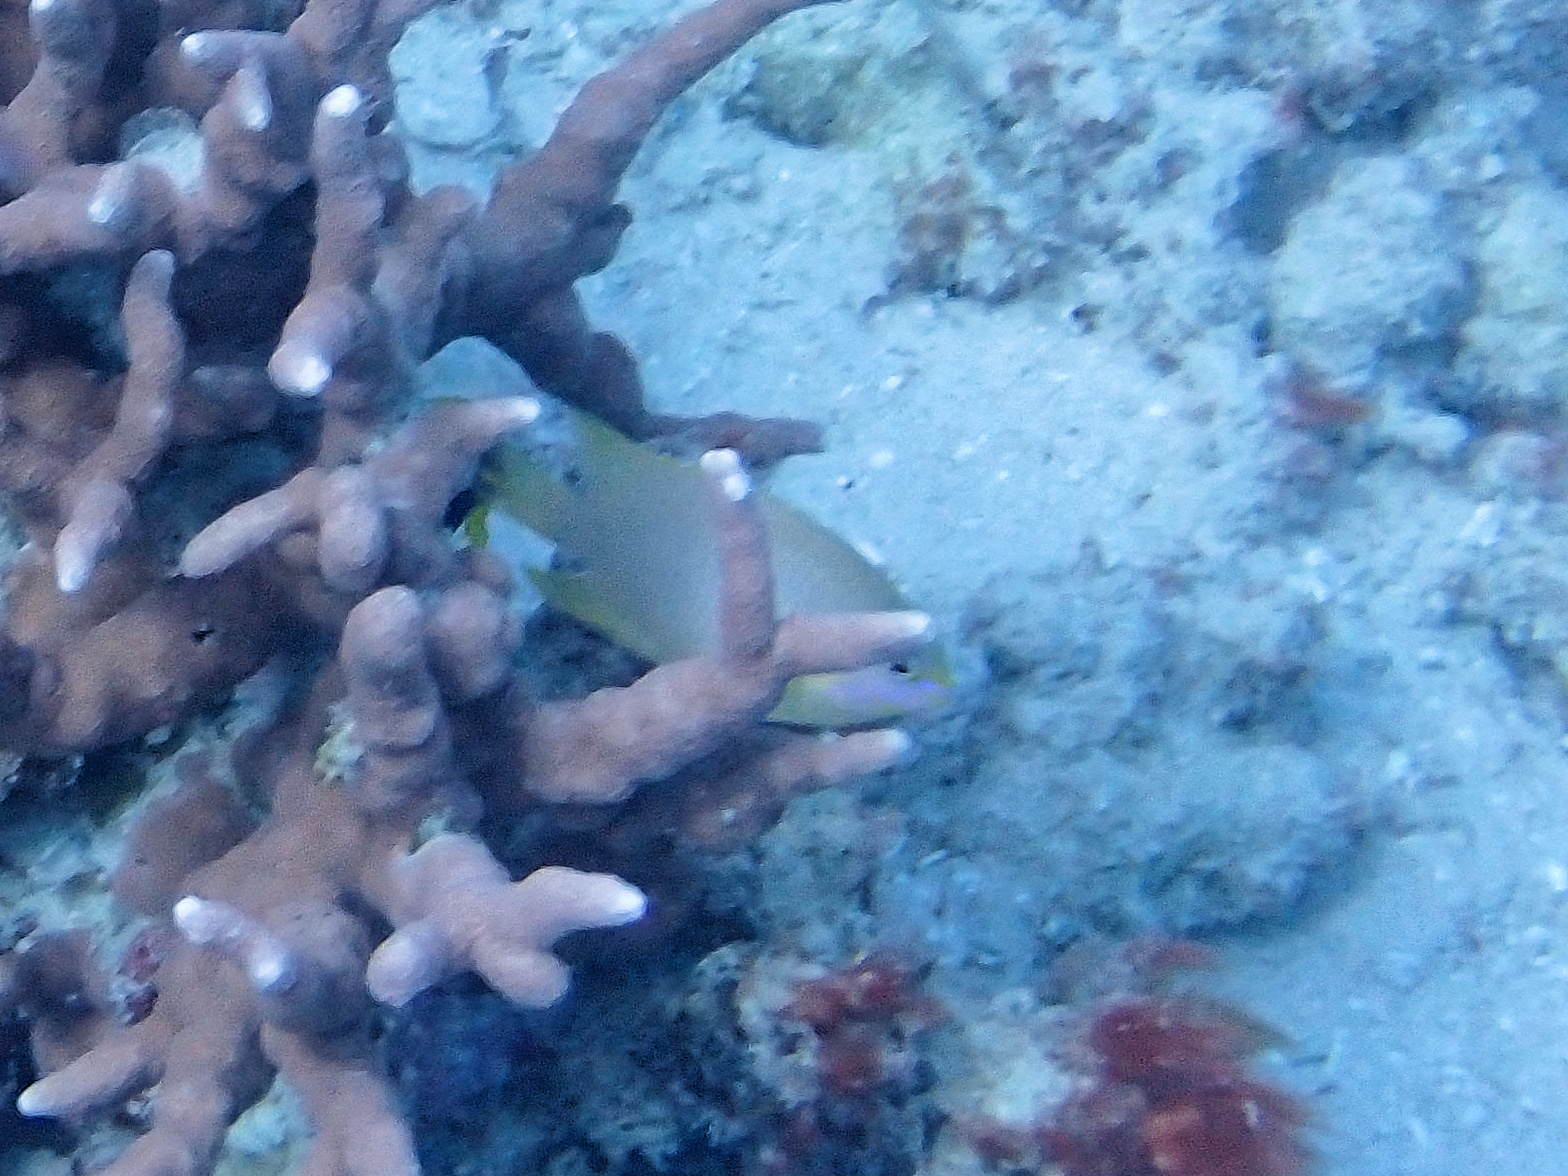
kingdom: Animalia
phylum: Chordata
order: Perciformes
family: Pomacentridae
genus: Pomacentrus
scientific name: Pomacentrus amboinensis
